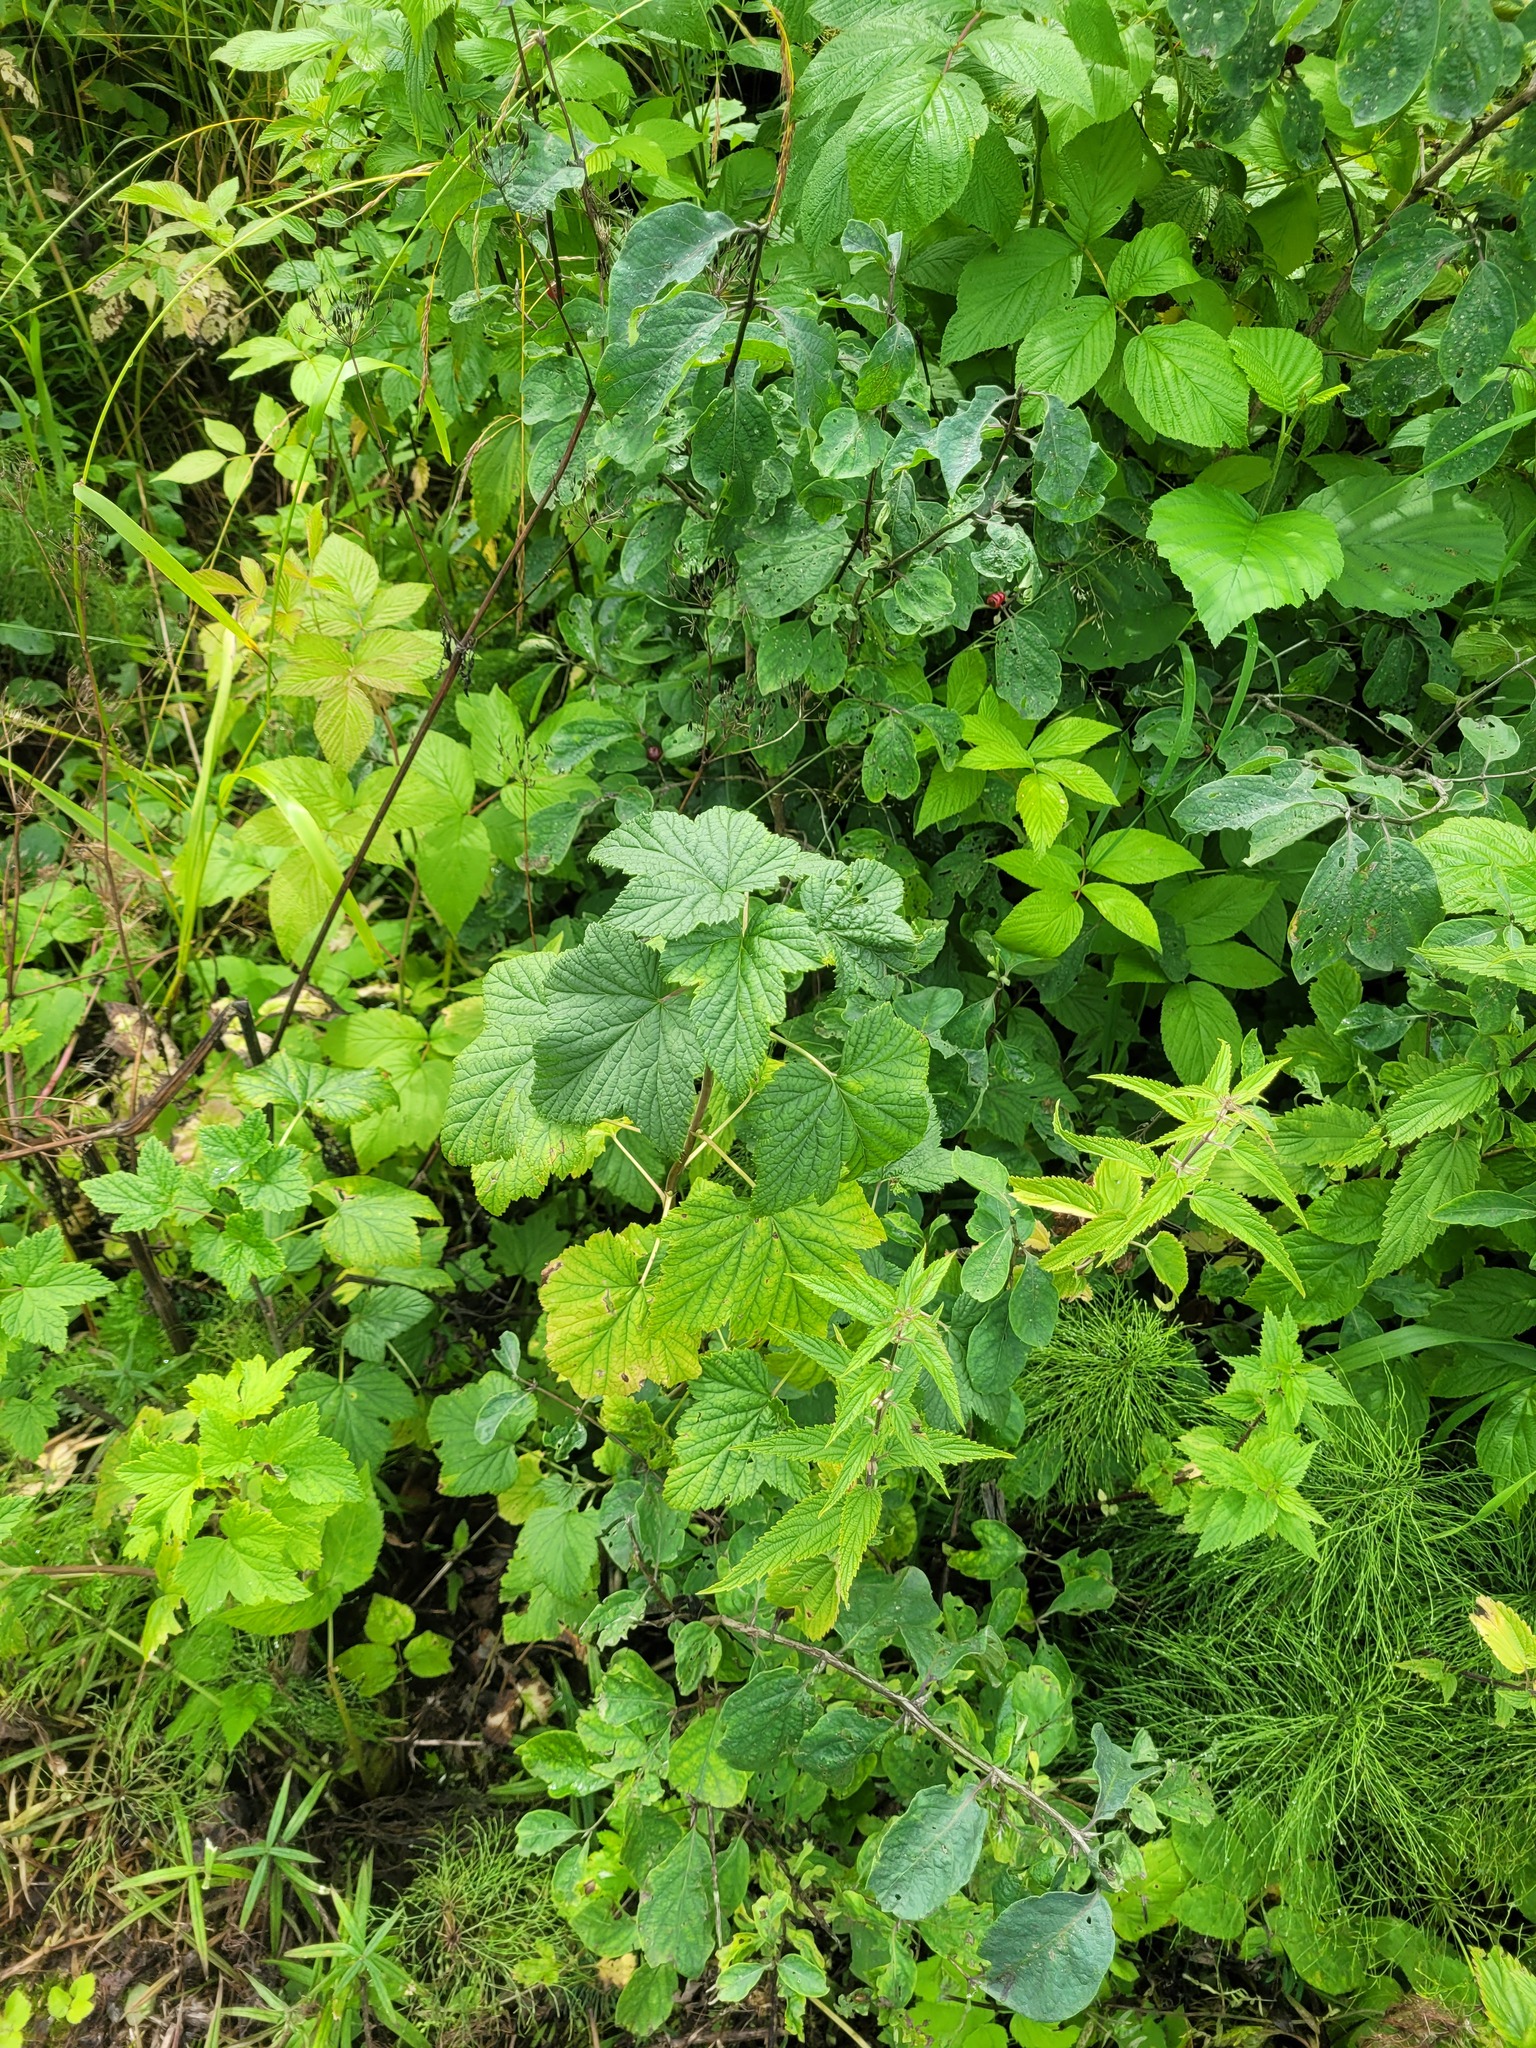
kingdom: Plantae
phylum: Tracheophyta
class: Magnoliopsida
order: Saxifragales
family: Grossulariaceae
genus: Ribes
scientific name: Ribes nigrum
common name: Black currant
